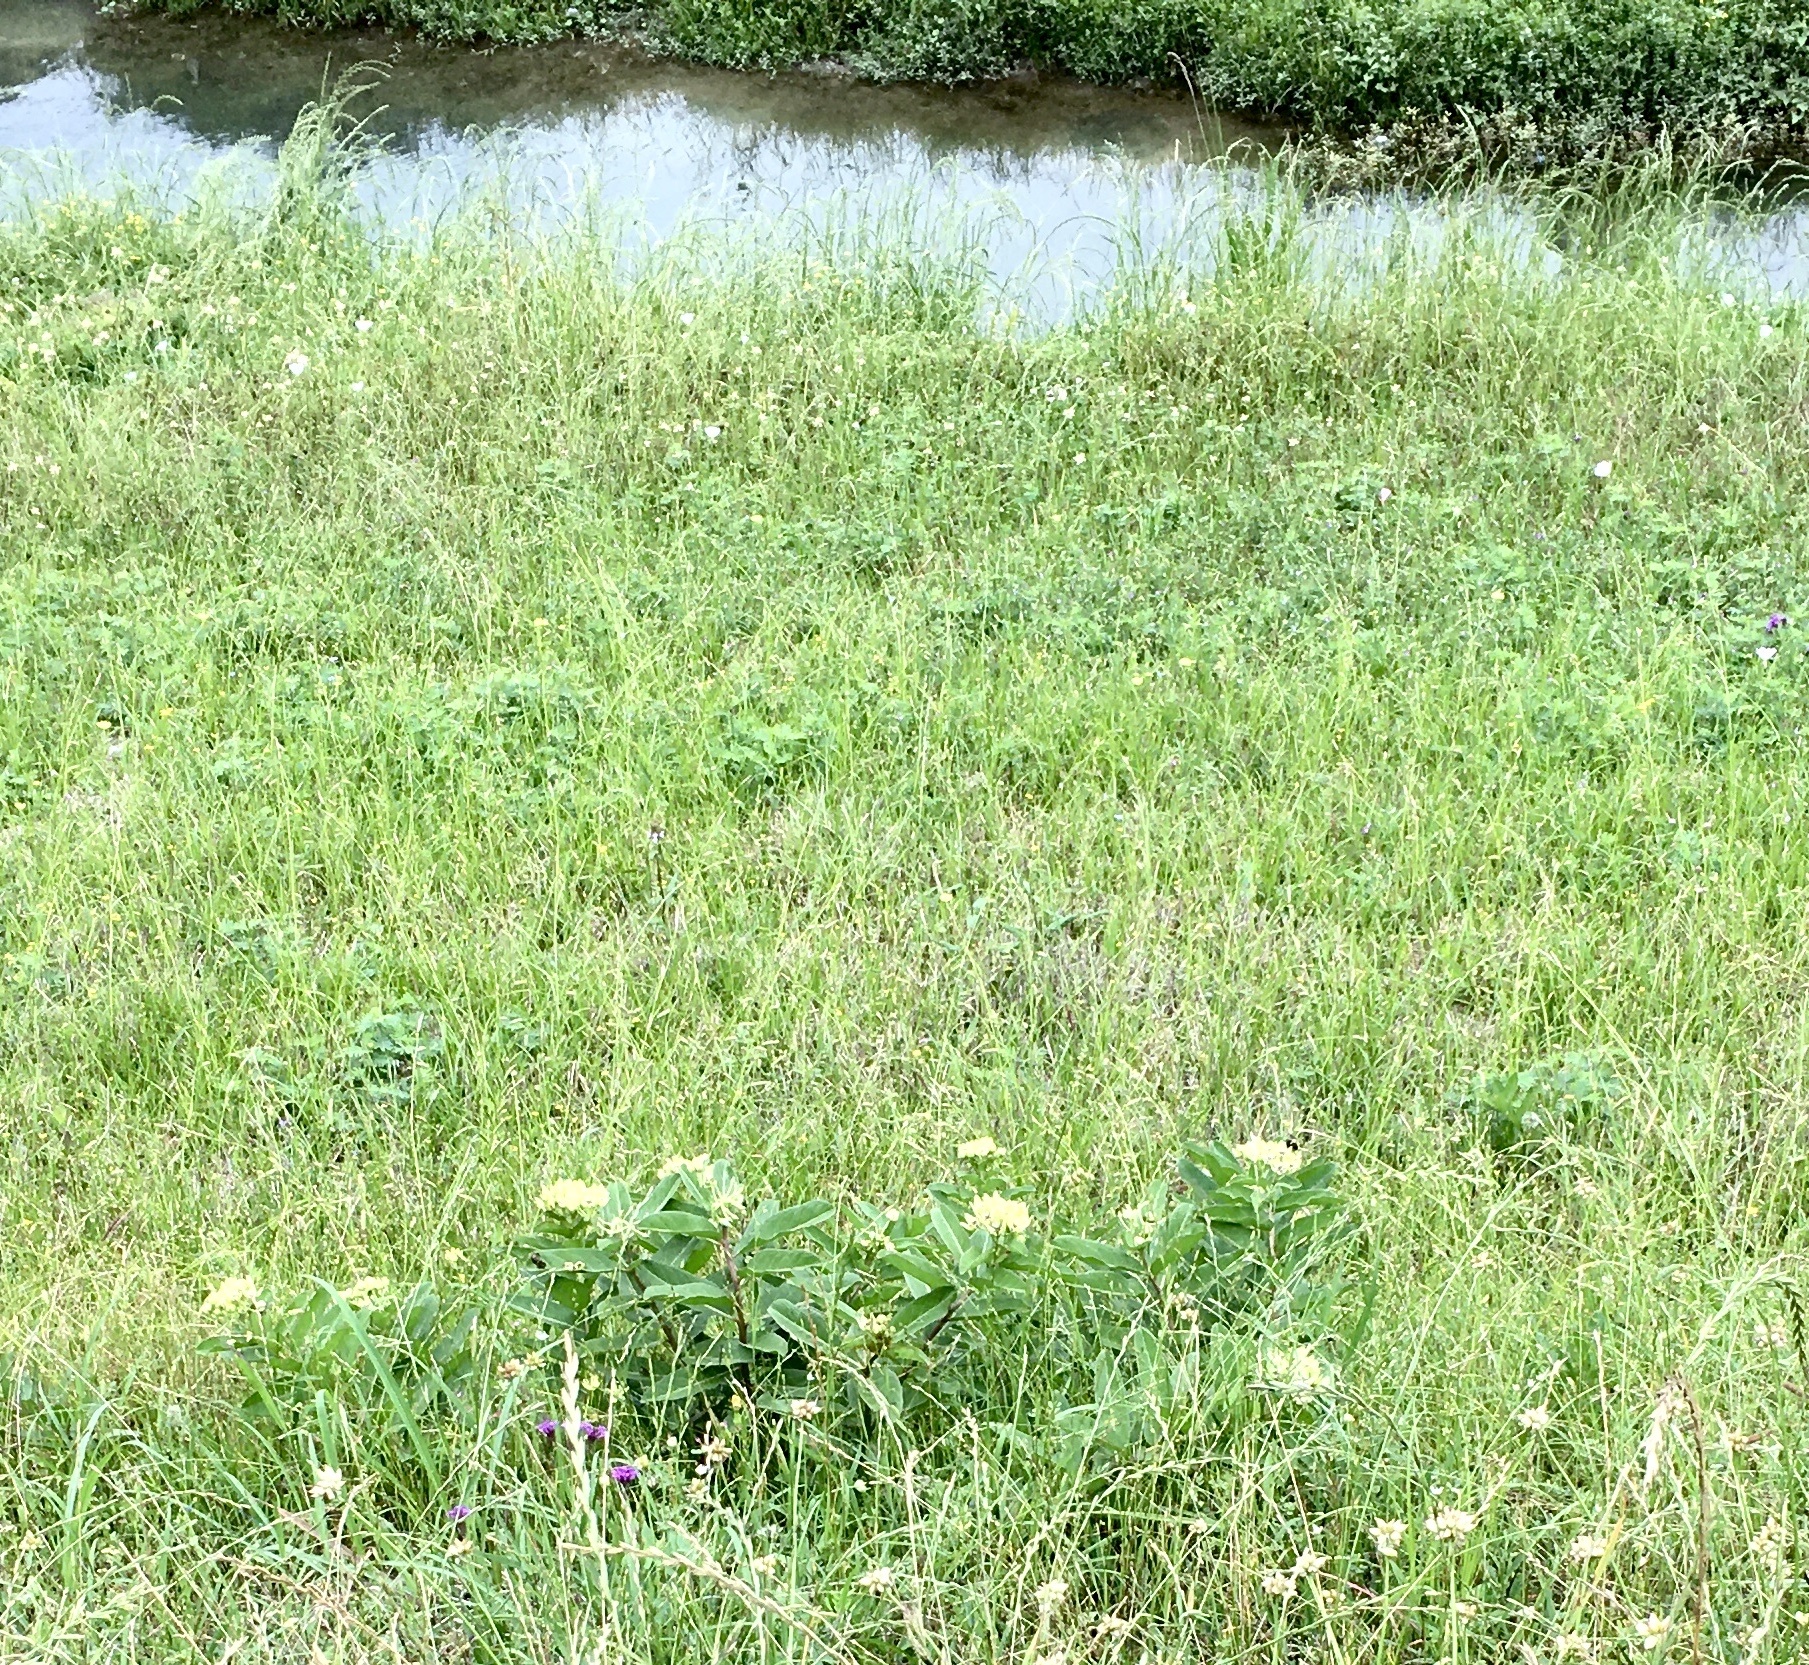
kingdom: Plantae
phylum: Tracheophyta
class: Magnoliopsida
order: Gentianales
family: Apocynaceae
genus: Asclepias
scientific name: Asclepias viridis
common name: Antelope-horns
